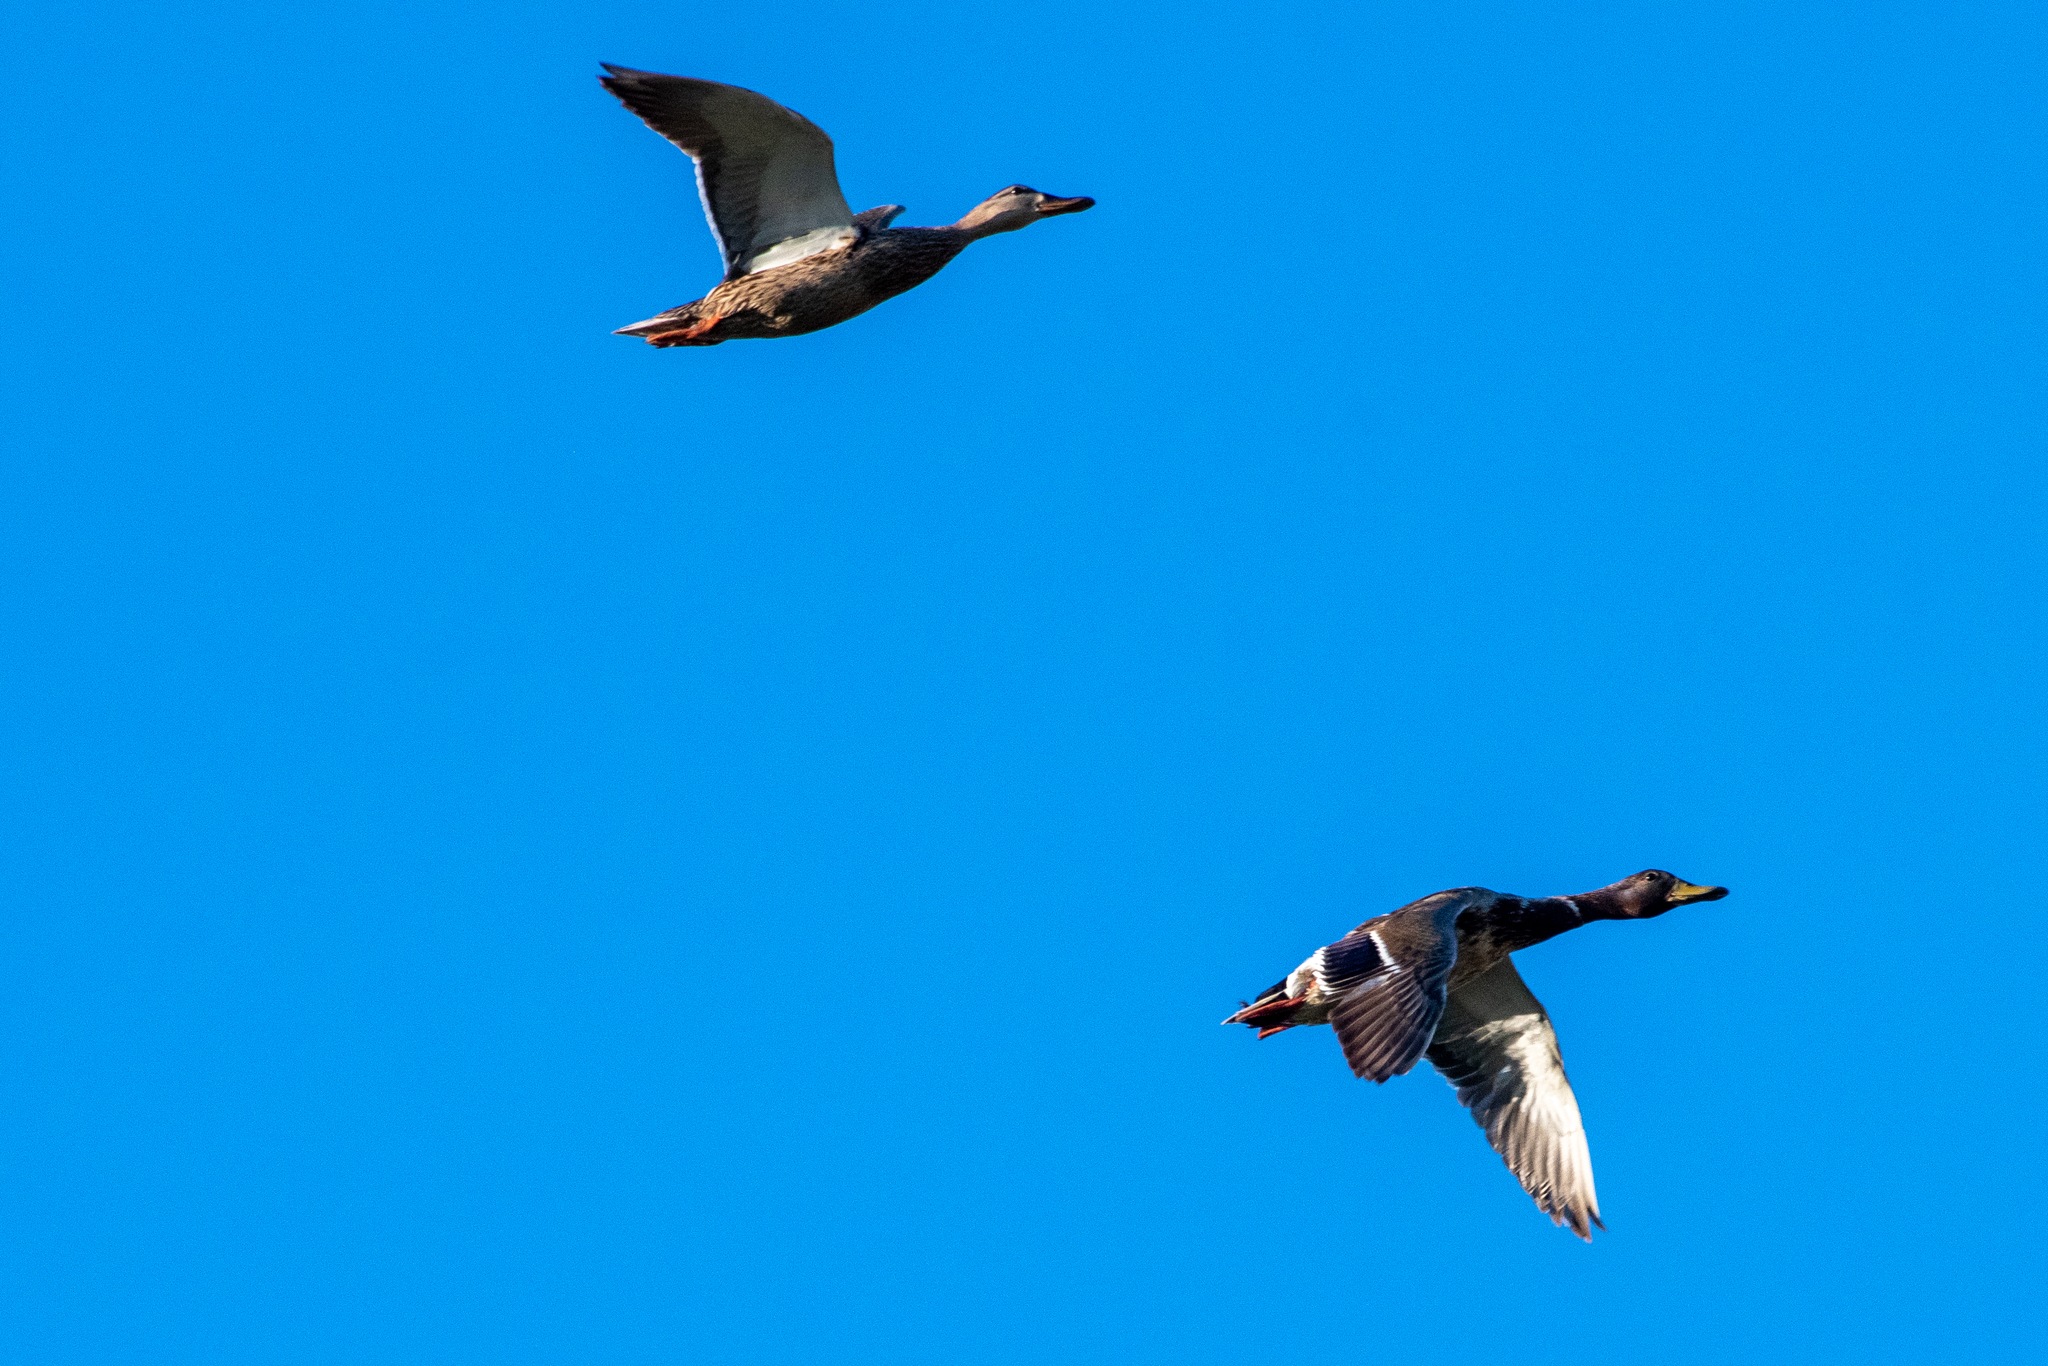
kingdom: Animalia
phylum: Chordata
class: Aves
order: Anseriformes
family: Anatidae
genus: Anas
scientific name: Anas platyrhynchos
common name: Mallard
